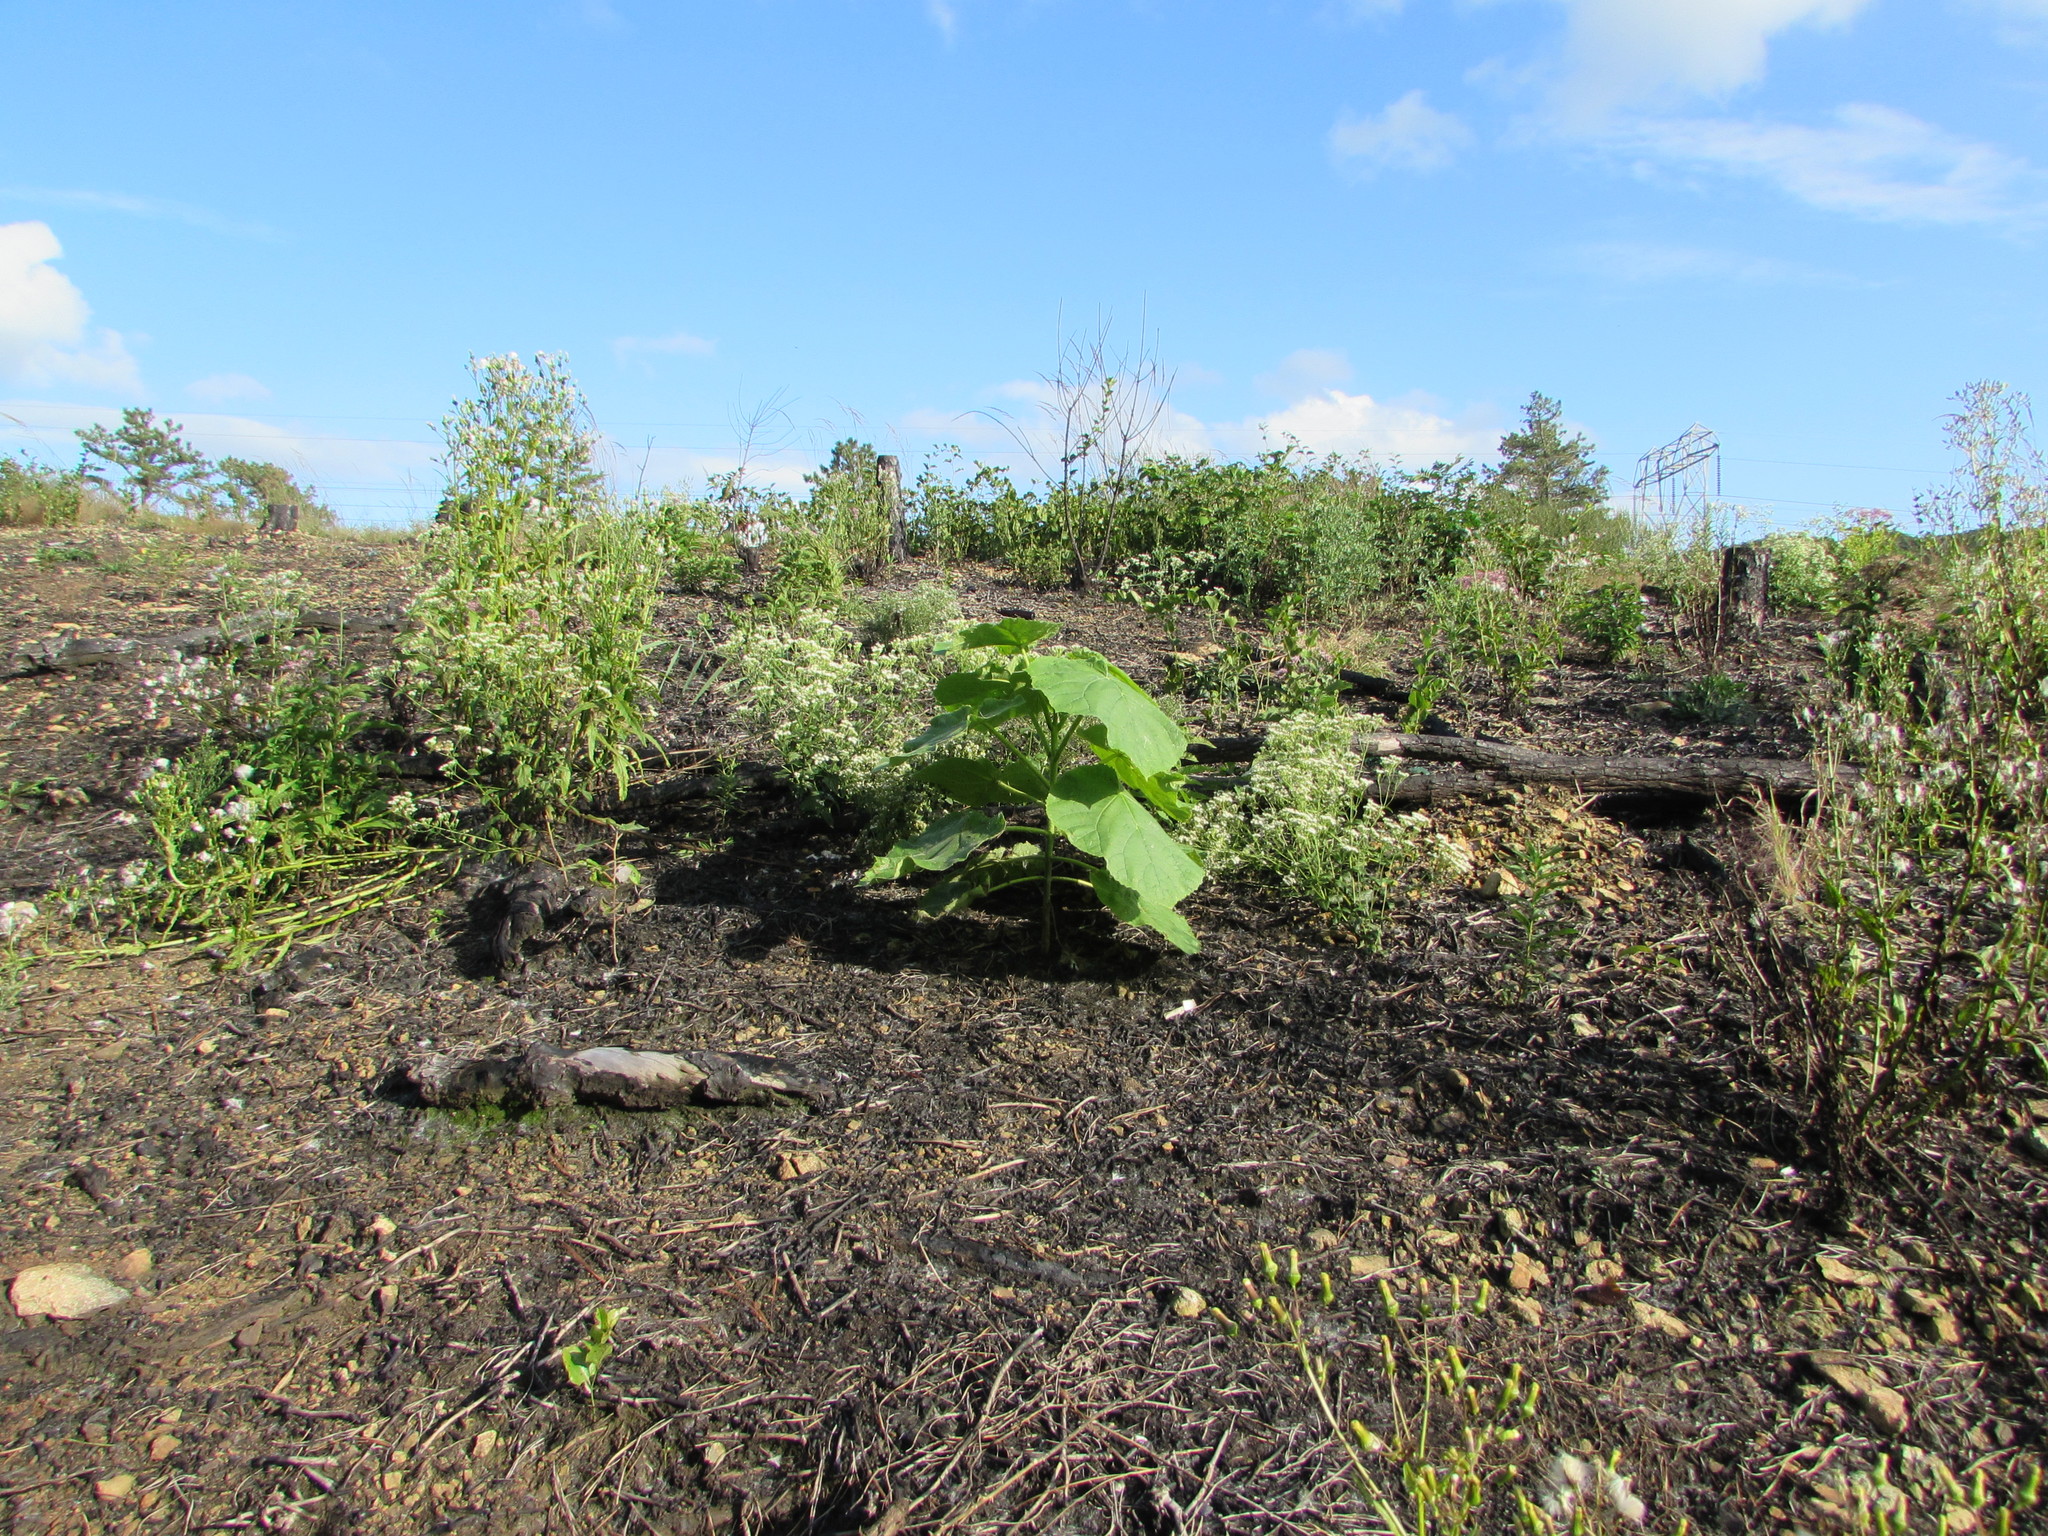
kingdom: Plantae
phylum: Tracheophyta
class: Magnoliopsida
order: Lamiales
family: Paulowniaceae
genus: Paulownia
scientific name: Paulownia tomentosa
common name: Foxglove-tree
